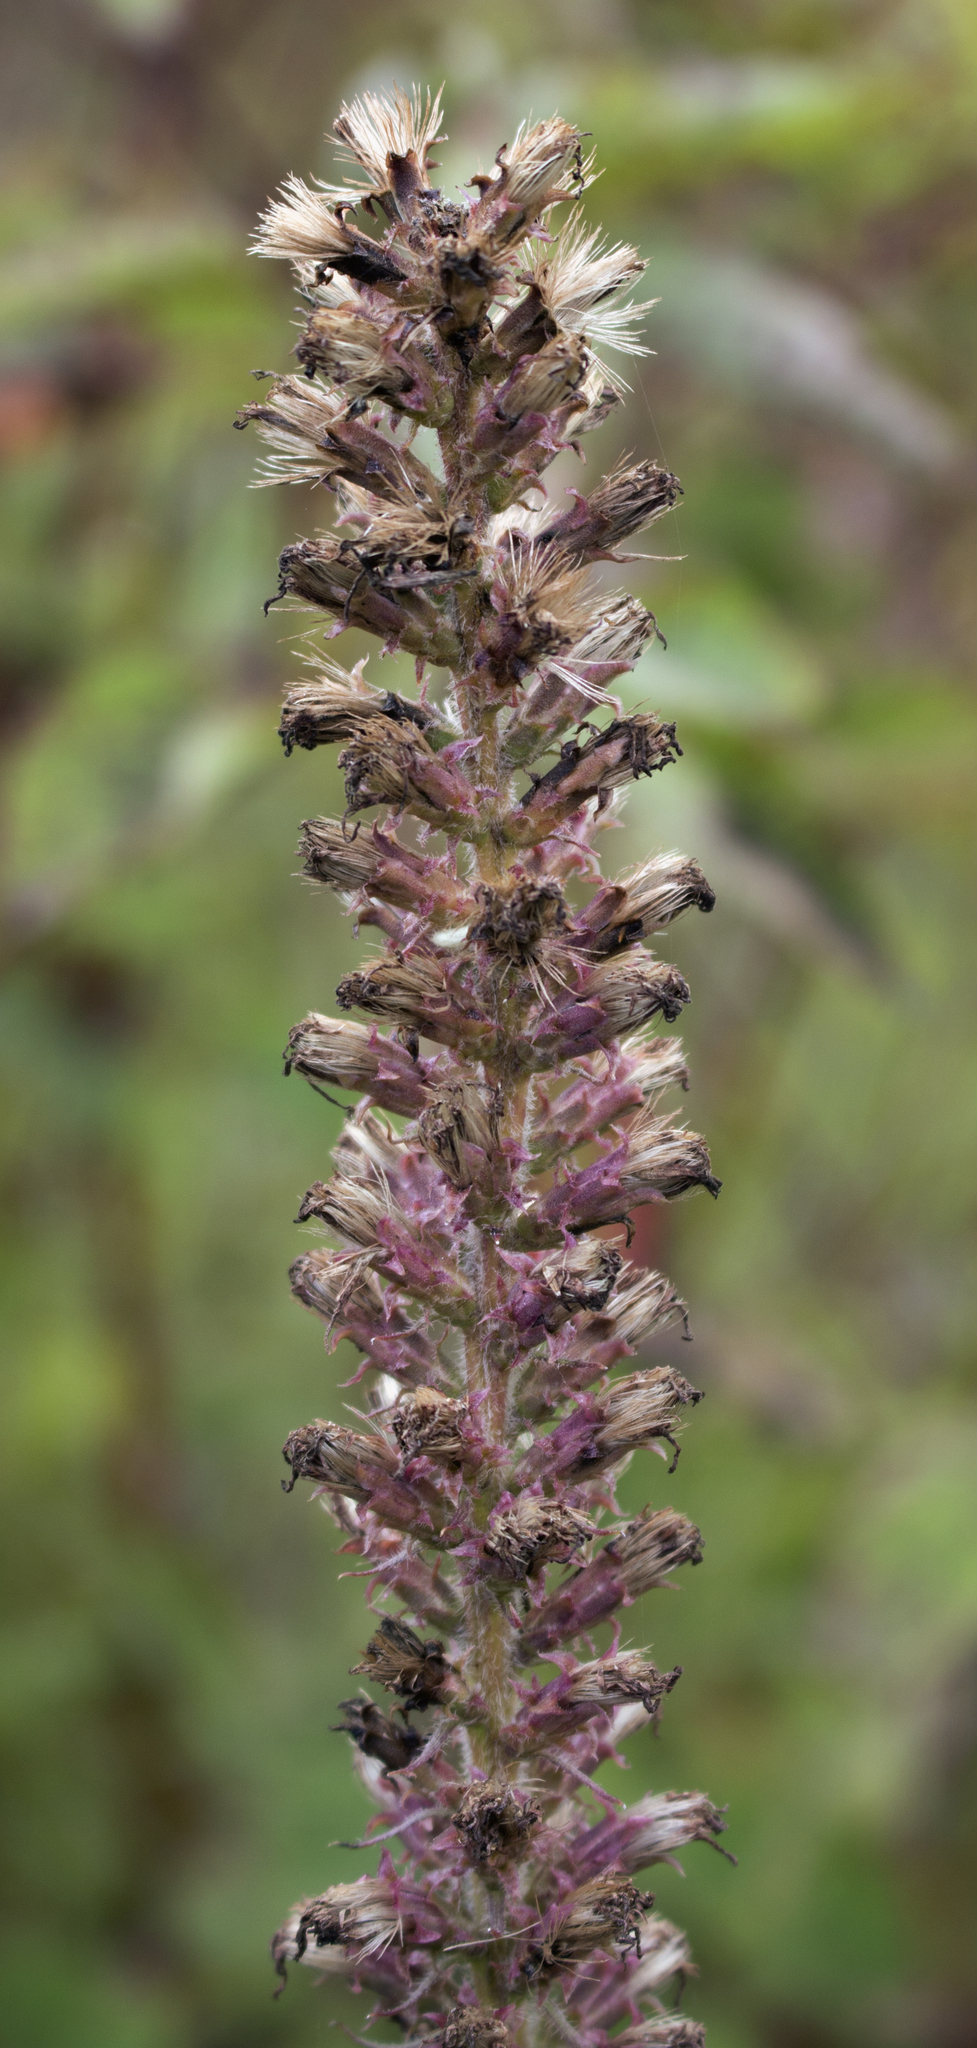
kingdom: Plantae
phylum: Tracheophyta
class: Magnoliopsida
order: Asterales
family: Asteraceae
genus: Liatris
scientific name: Liatris pycnostachya
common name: Cattail gayfeather
